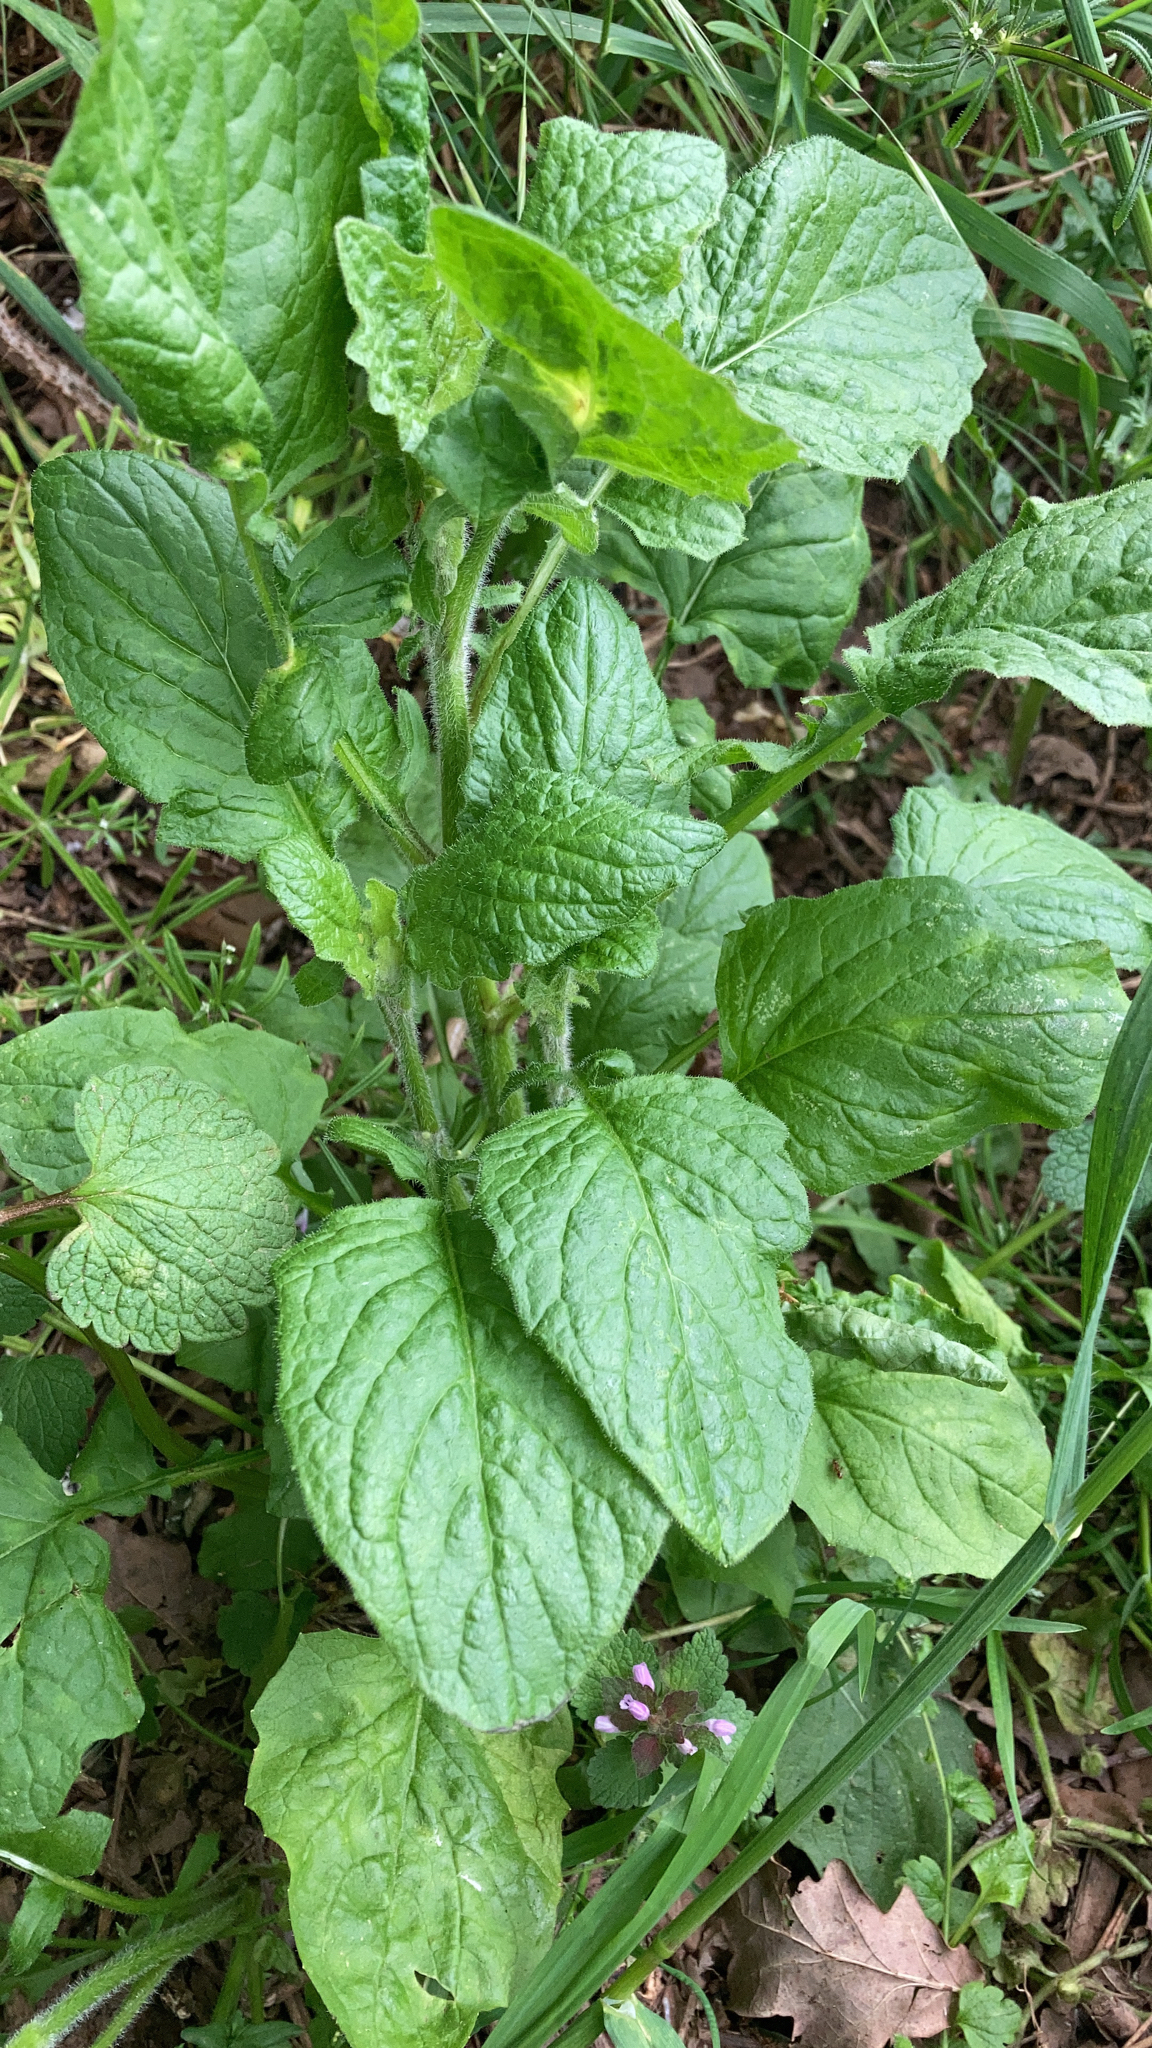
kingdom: Plantae
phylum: Tracheophyta
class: Magnoliopsida
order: Asterales
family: Asteraceae
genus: Lapsana
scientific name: Lapsana communis
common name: Nipplewort
